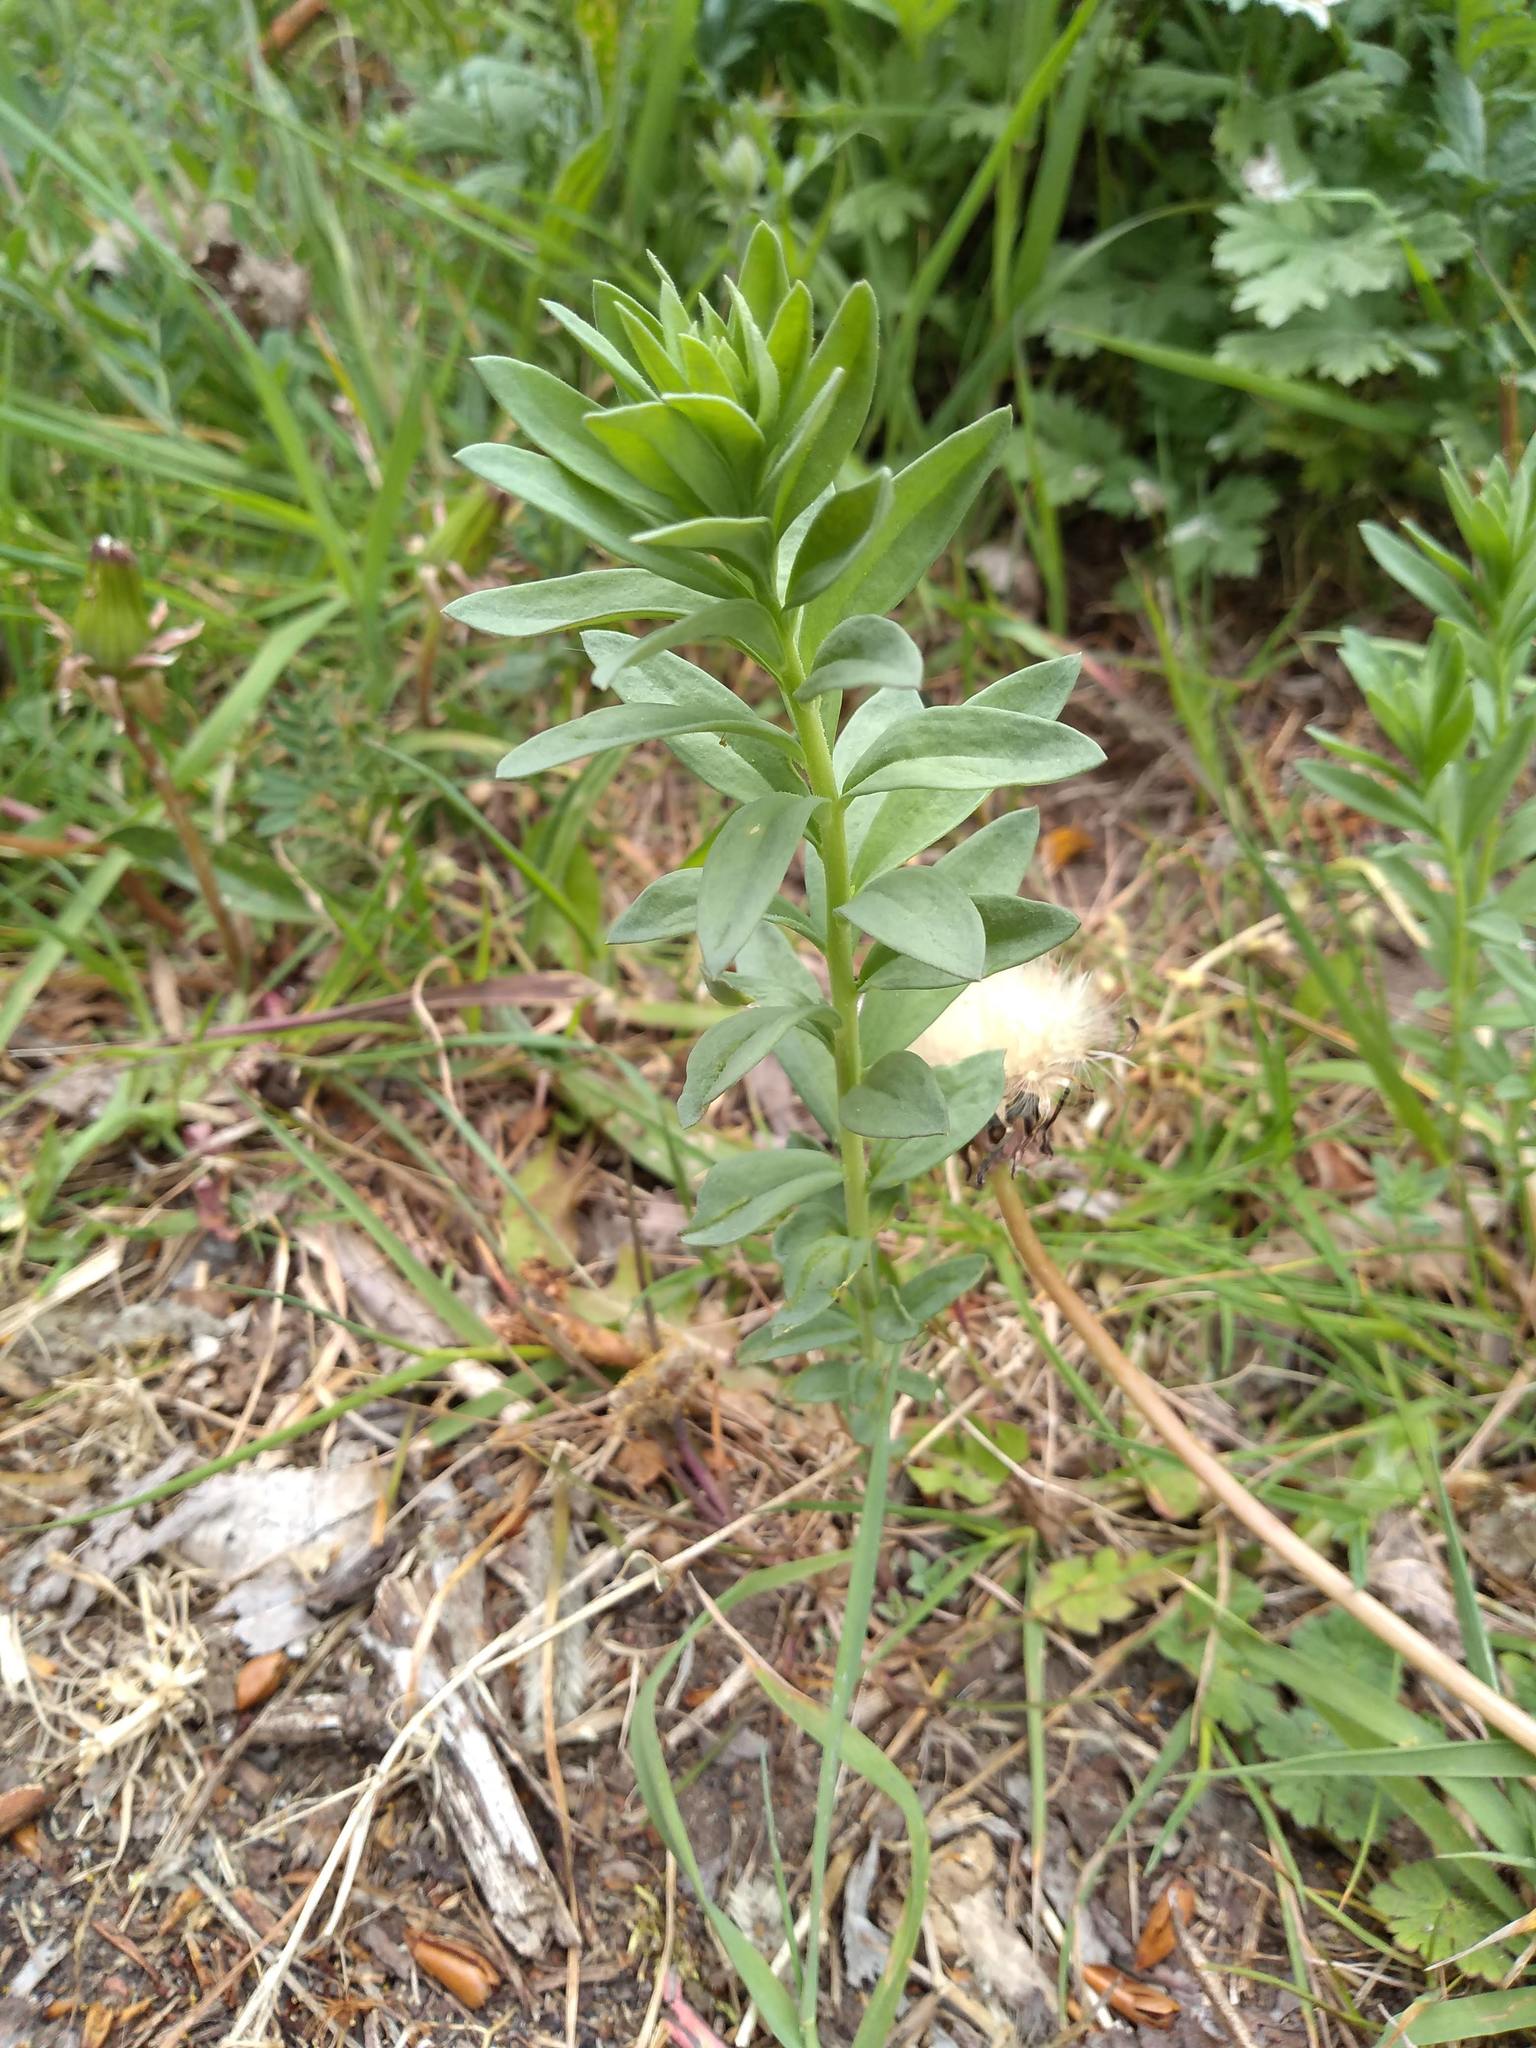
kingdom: Plantae
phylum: Tracheophyta
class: Magnoliopsida
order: Lamiales
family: Plantaginaceae
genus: Linaria
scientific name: Linaria vulgaris
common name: Butter and eggs
